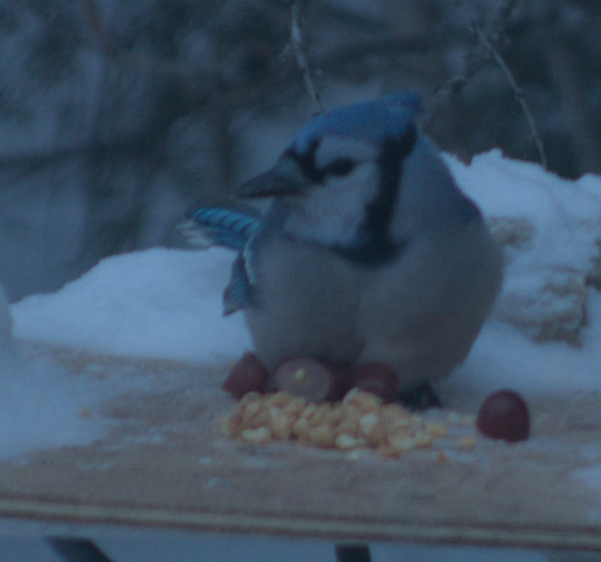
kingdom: Animalia
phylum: Chordata
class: Aves
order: Passeriformes
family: Corvidae
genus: Cyanocitta
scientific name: Cyanocitta cristata
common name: Blue jay
